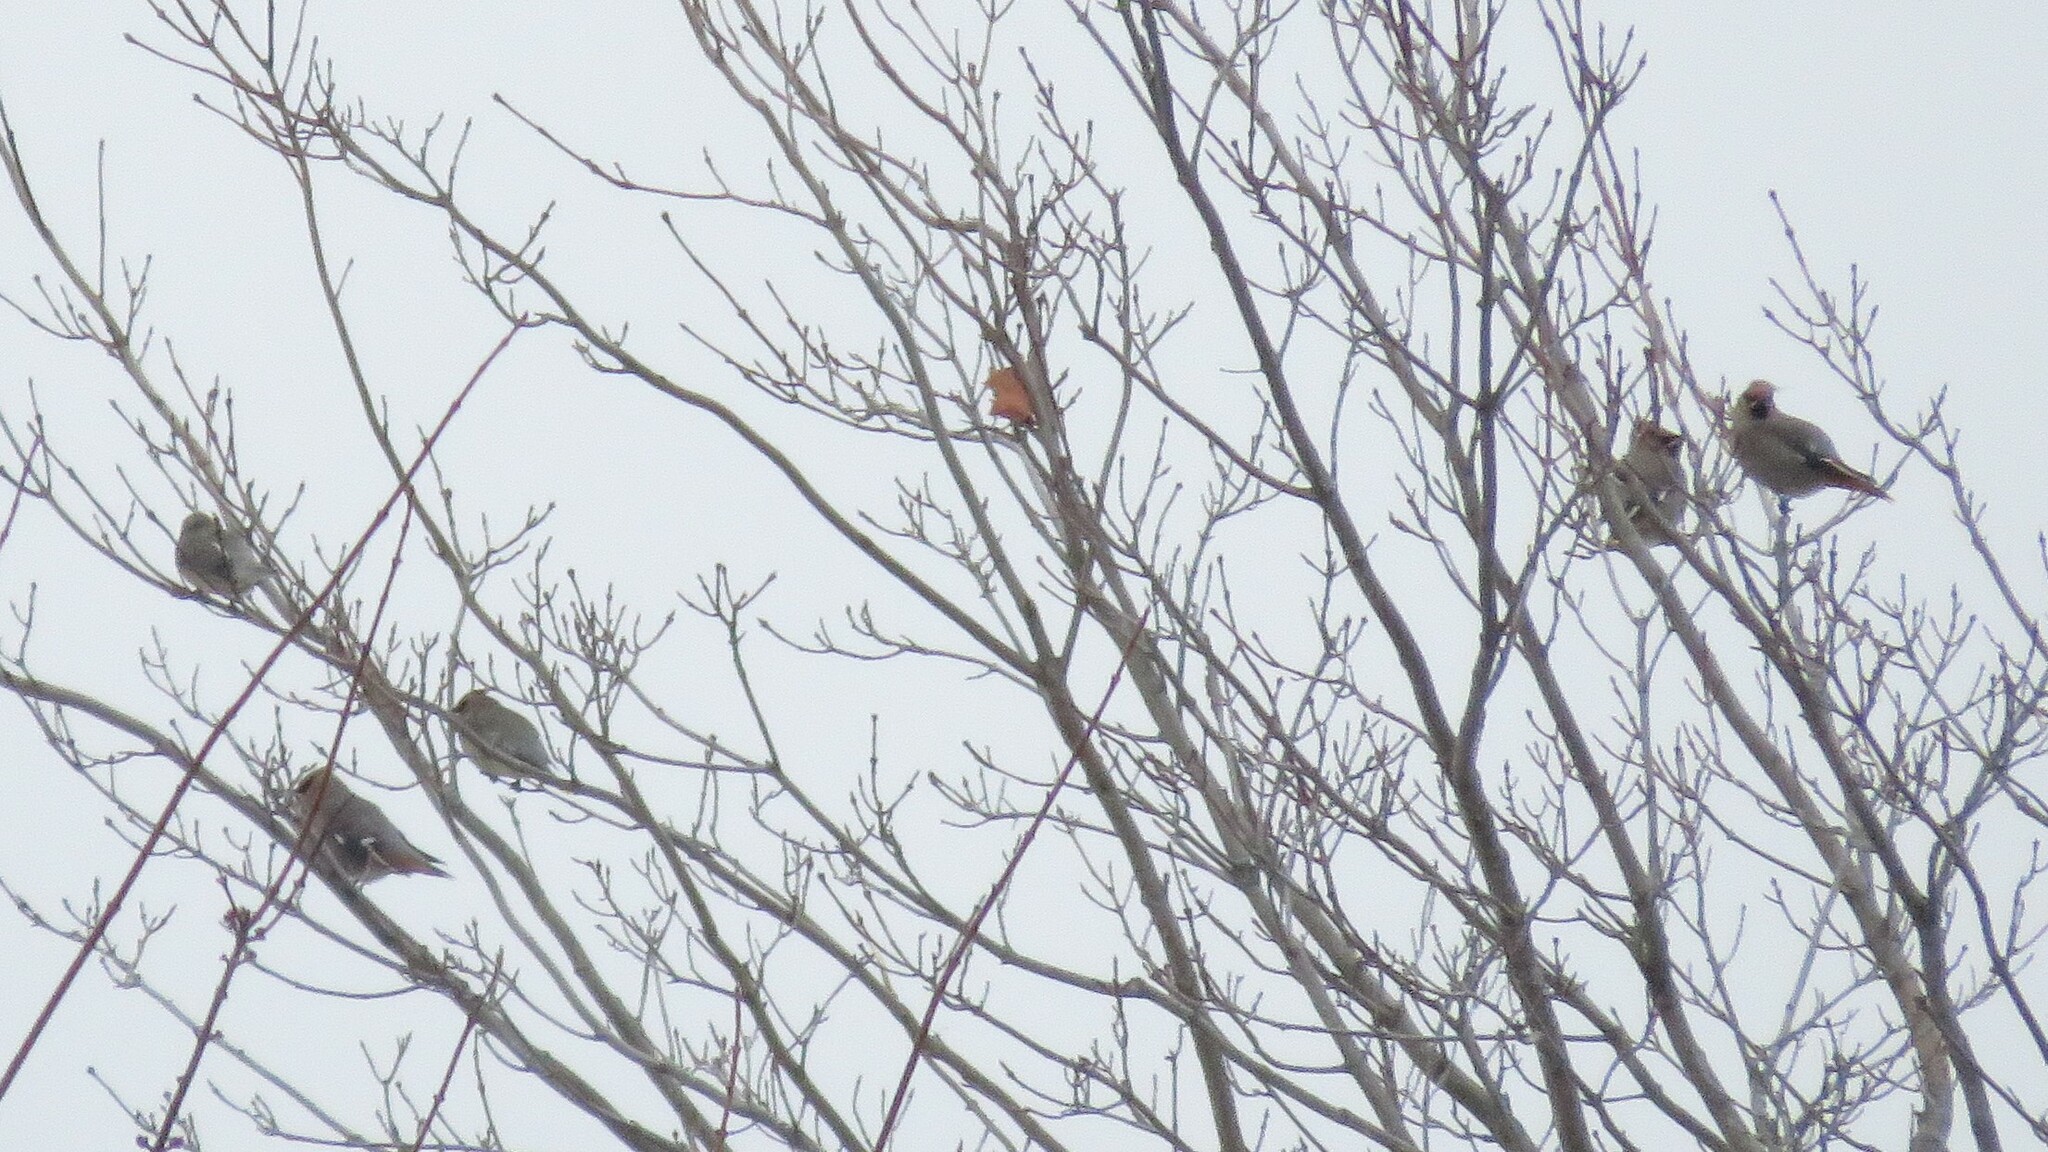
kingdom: Animalia
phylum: Chordata
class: Aves
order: Passeriformes
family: Bombycillidae
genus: Bombycilla
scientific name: Bombycilla garrulus
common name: Bohemian waxwing
